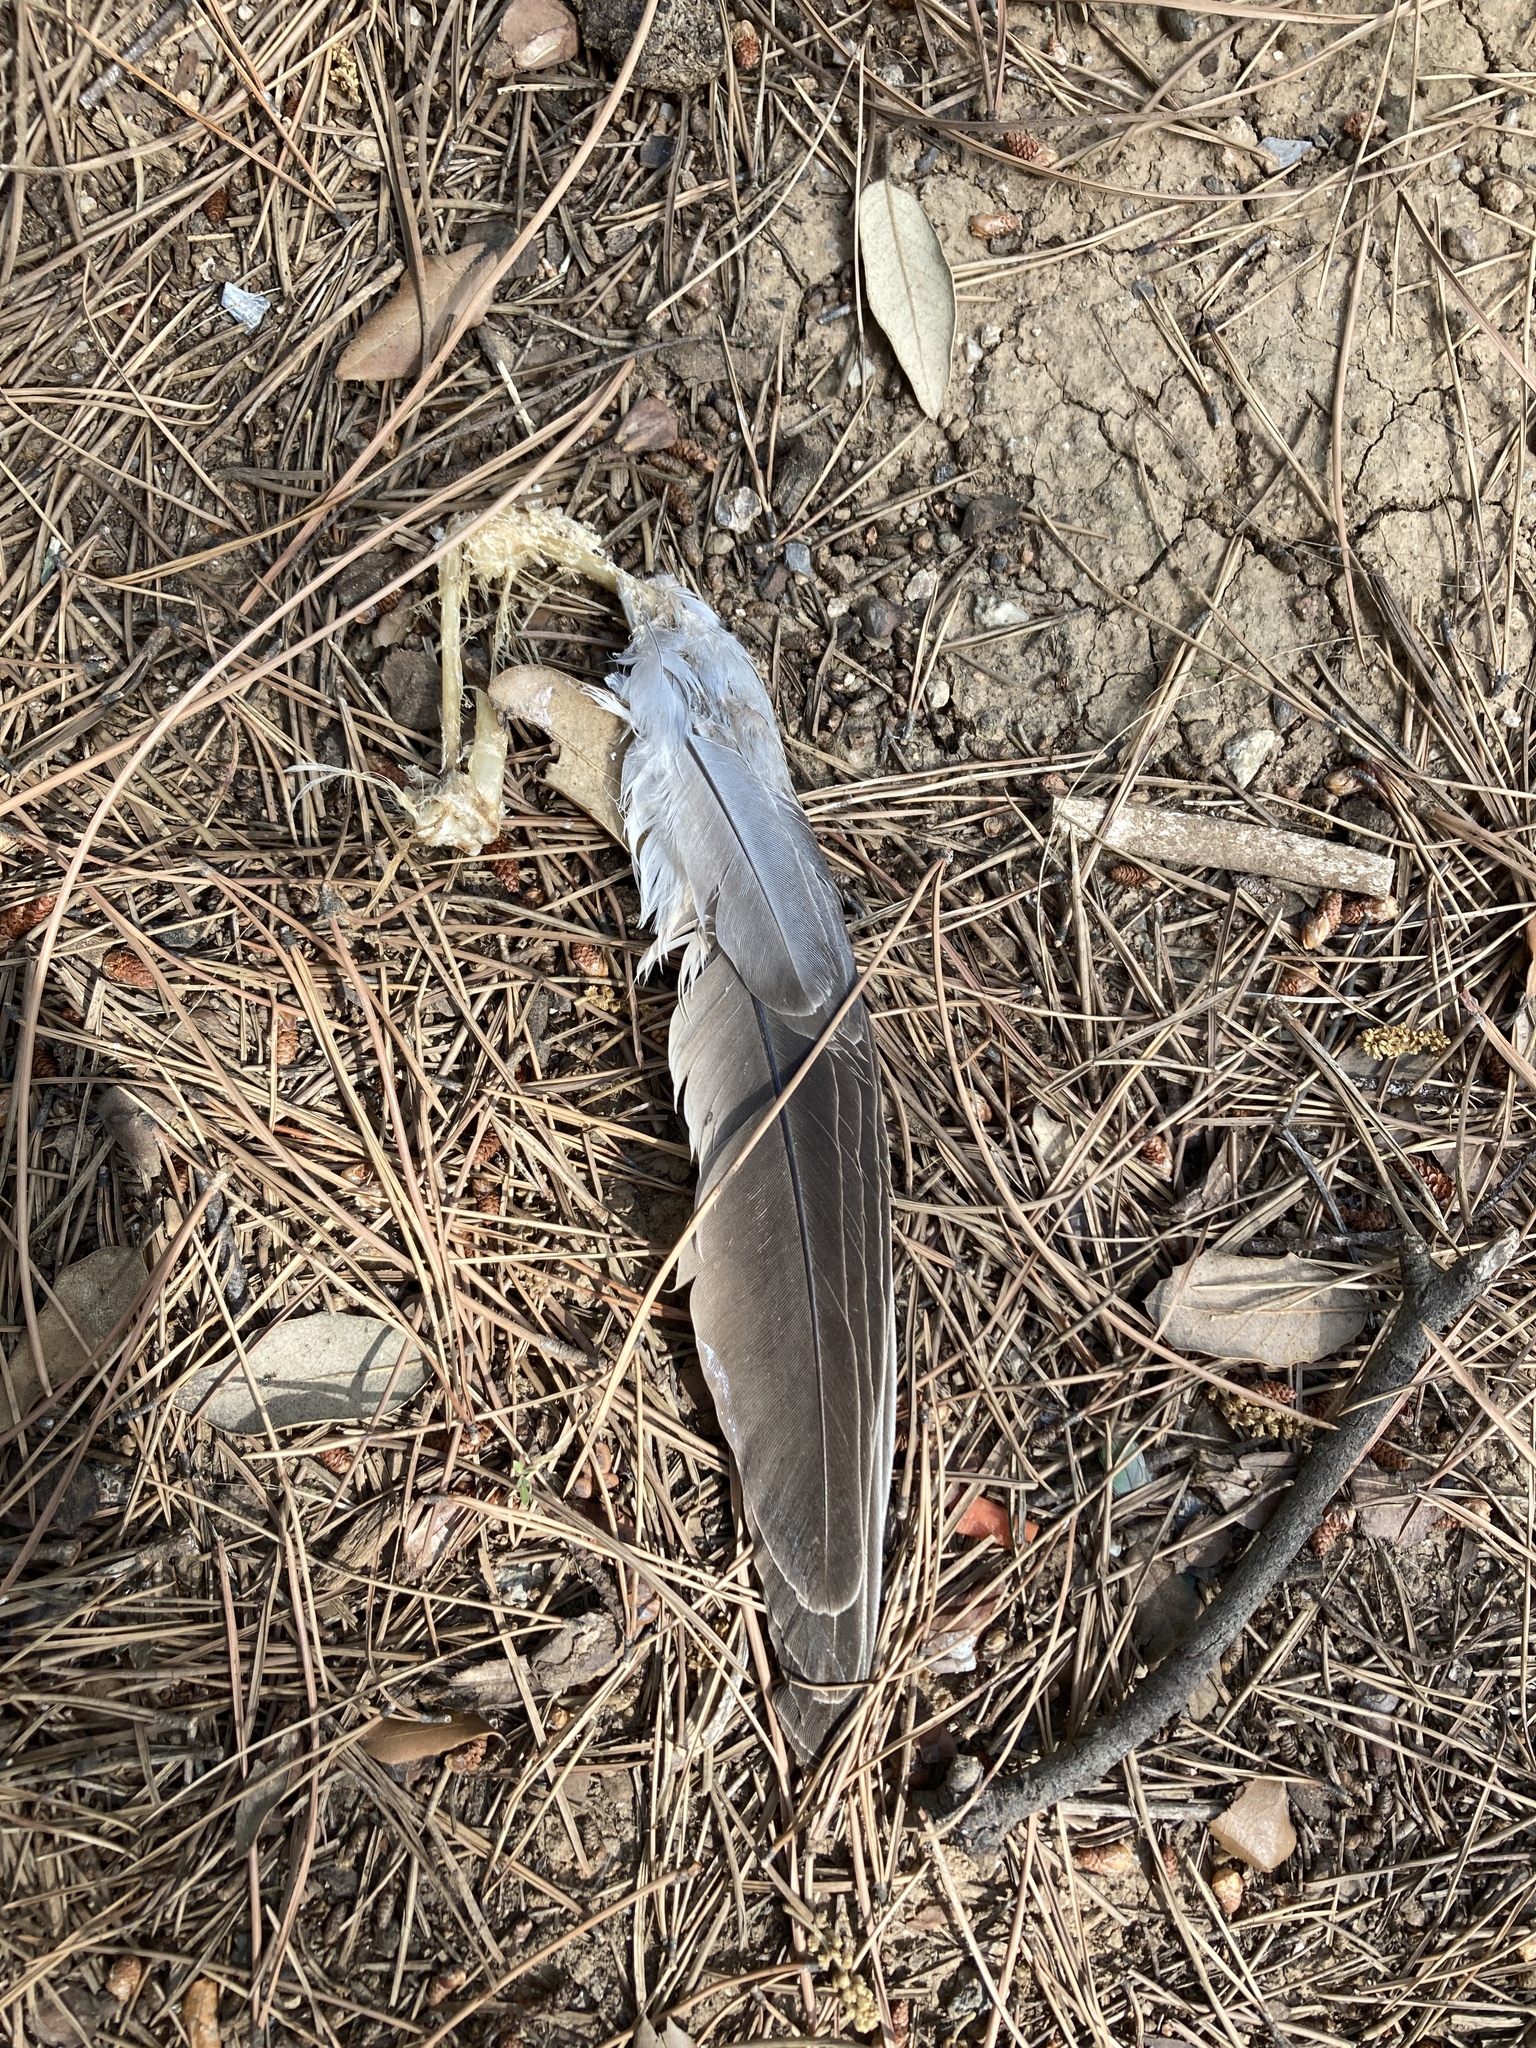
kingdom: Animalia
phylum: Chordata
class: Aves
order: Columbiformes
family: Columbidae
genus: Streptopelia
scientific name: Streptopelia decaocto
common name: Eurasian collared dove
